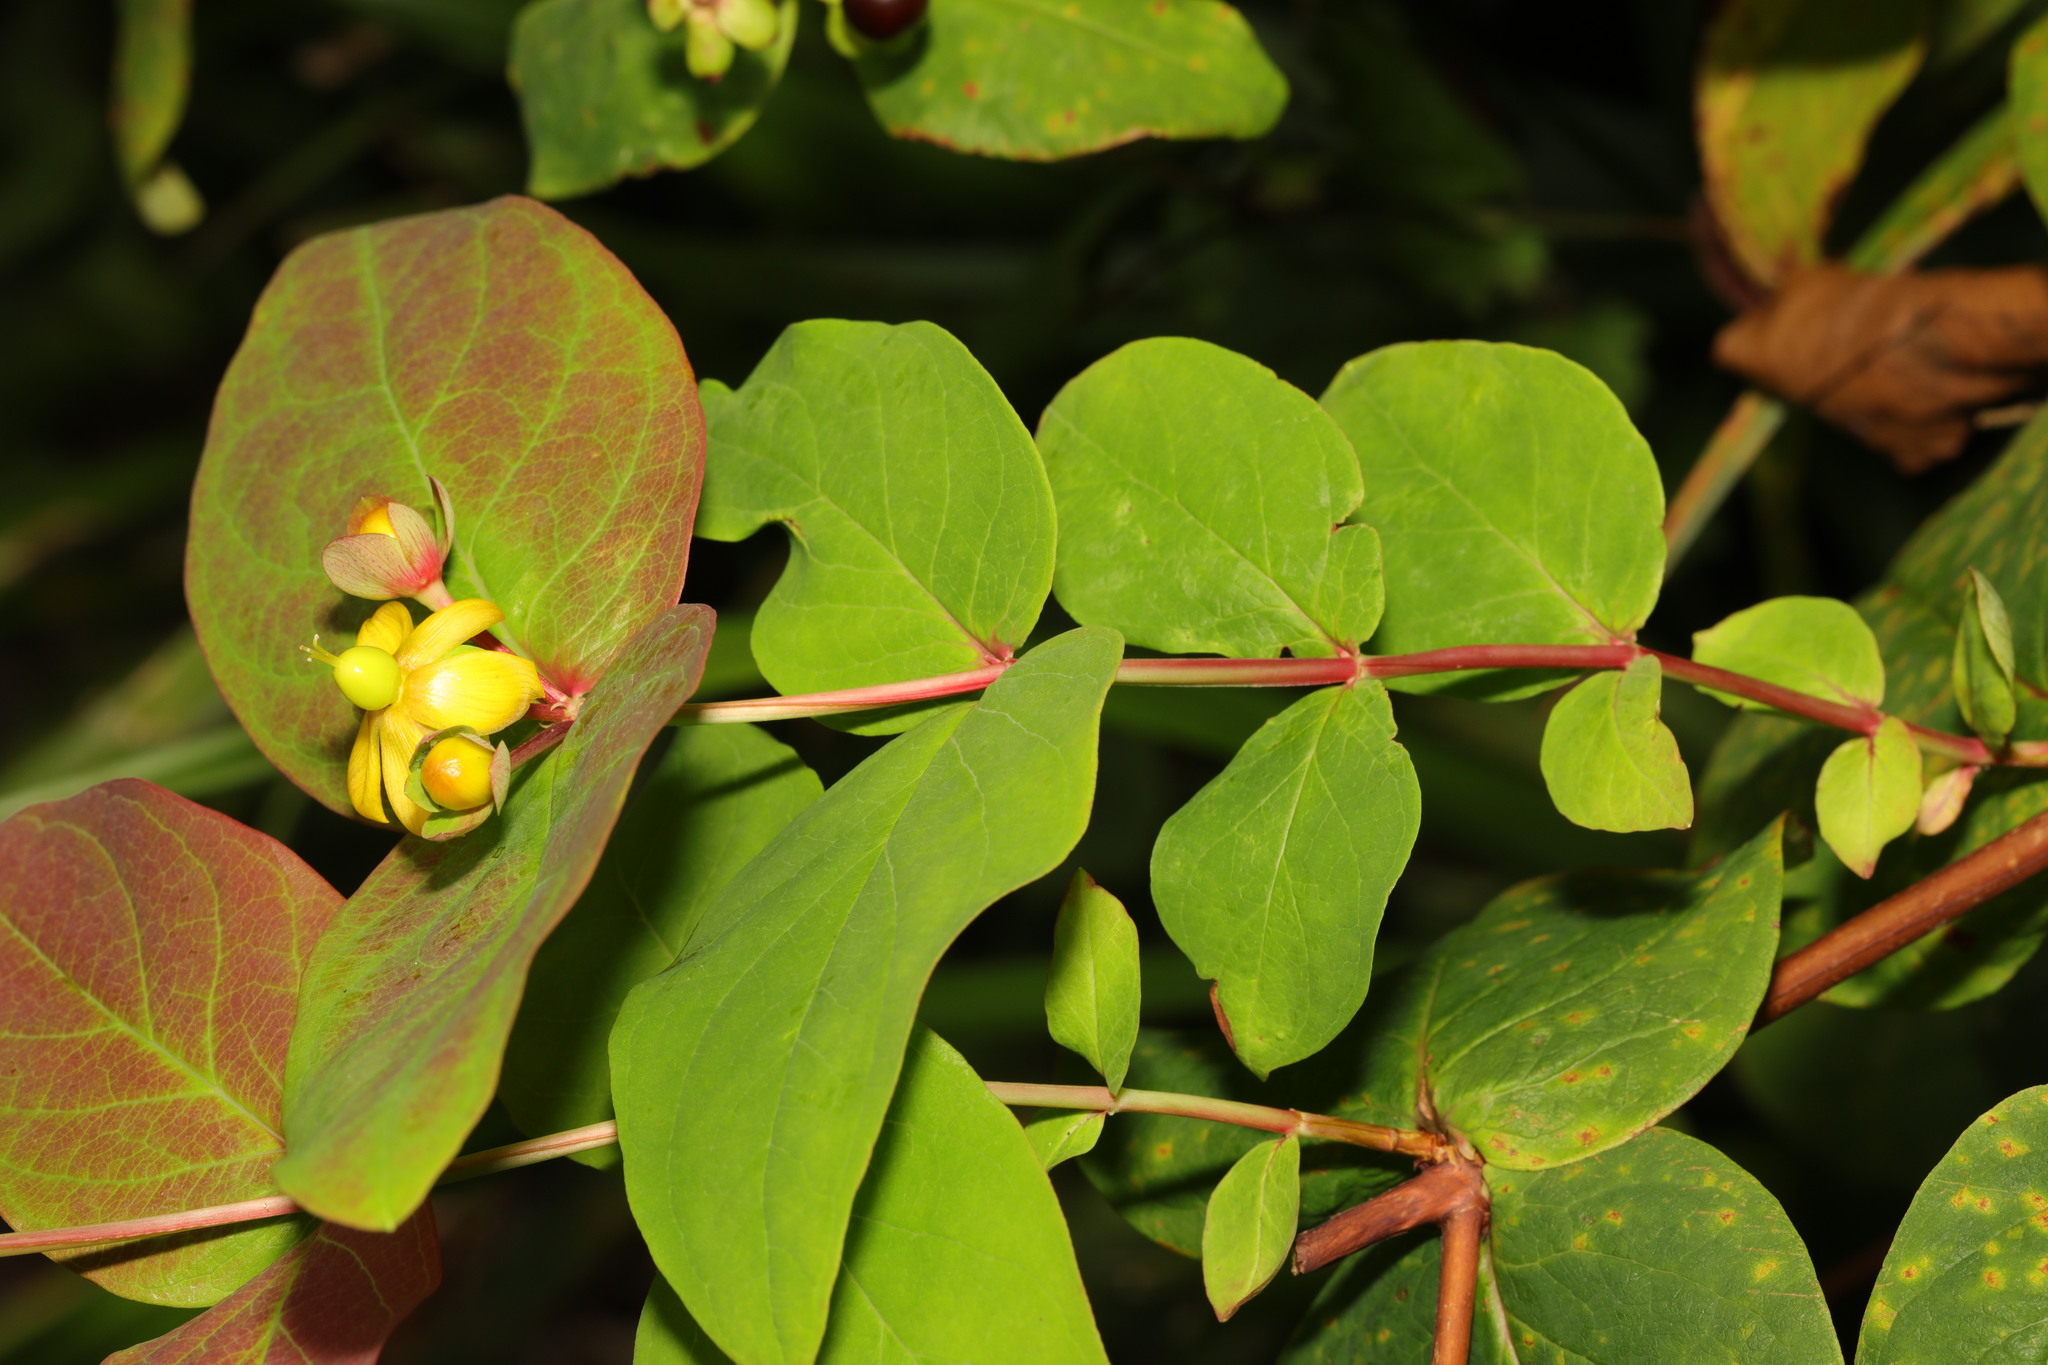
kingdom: Plantae
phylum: Tracheophyta
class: Magnoliopsida
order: Malpighiales
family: Hypericaceae
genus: Hypericum
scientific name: Hypericum androsaemum
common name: Sweet-amber
